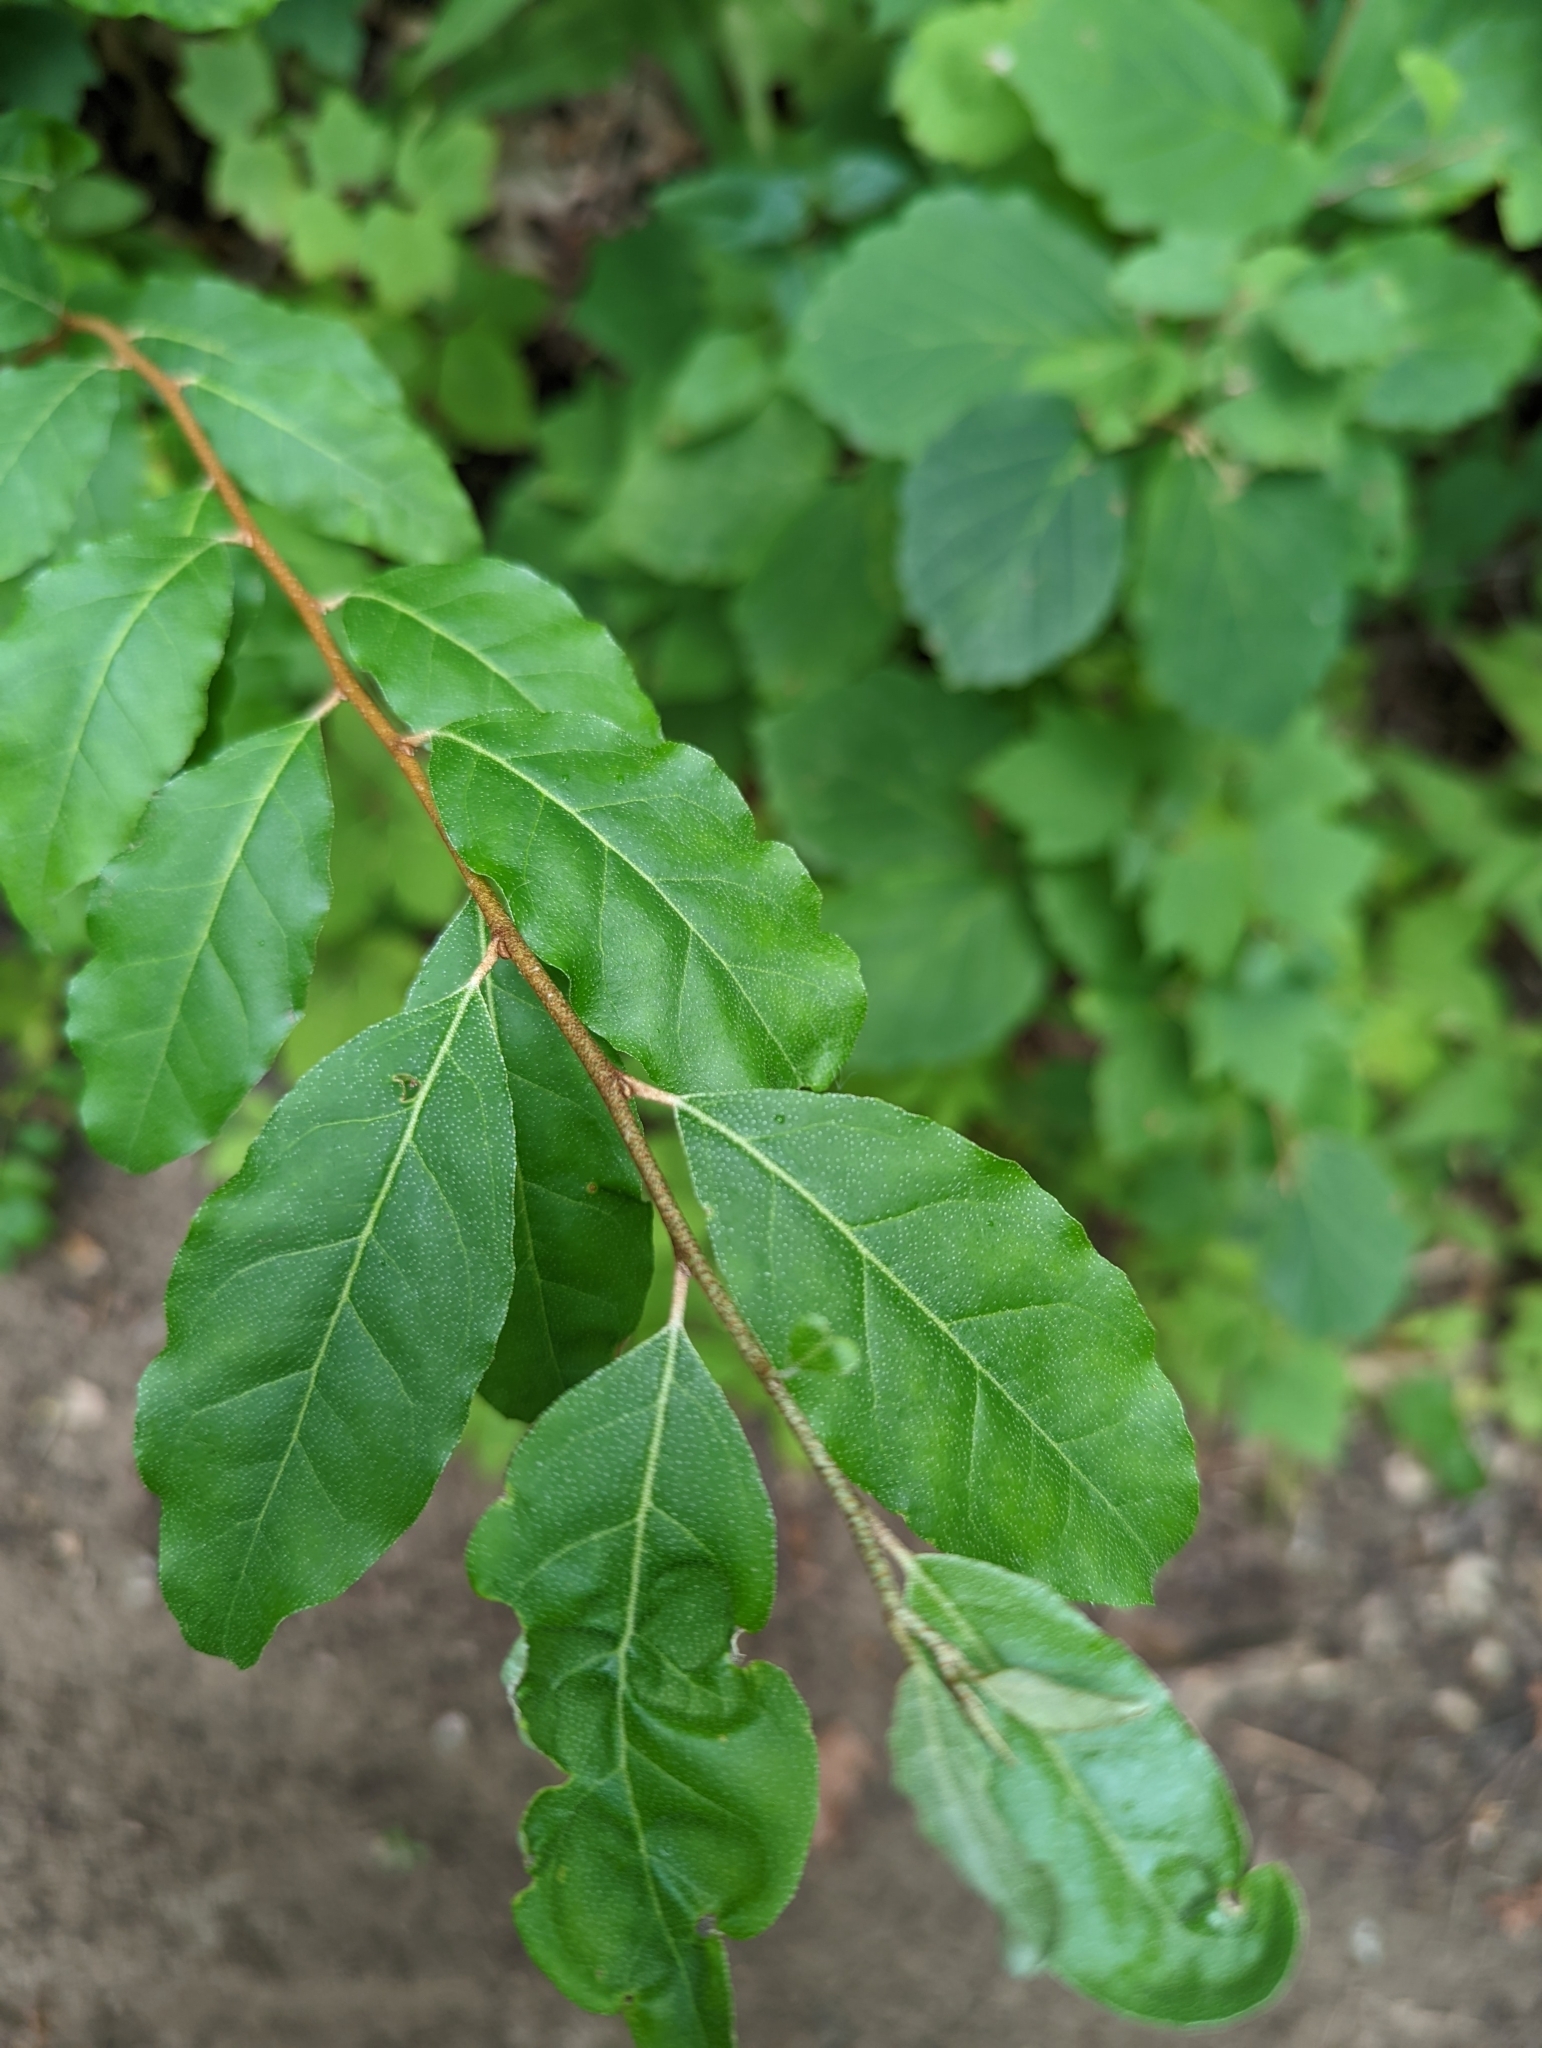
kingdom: Plantae
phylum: Tracheophyta
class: Magnoliopsida
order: Rosales
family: Elaeagnaceae
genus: Elaeagnus
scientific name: Elaeagnus umbellata
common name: Autumn olive
